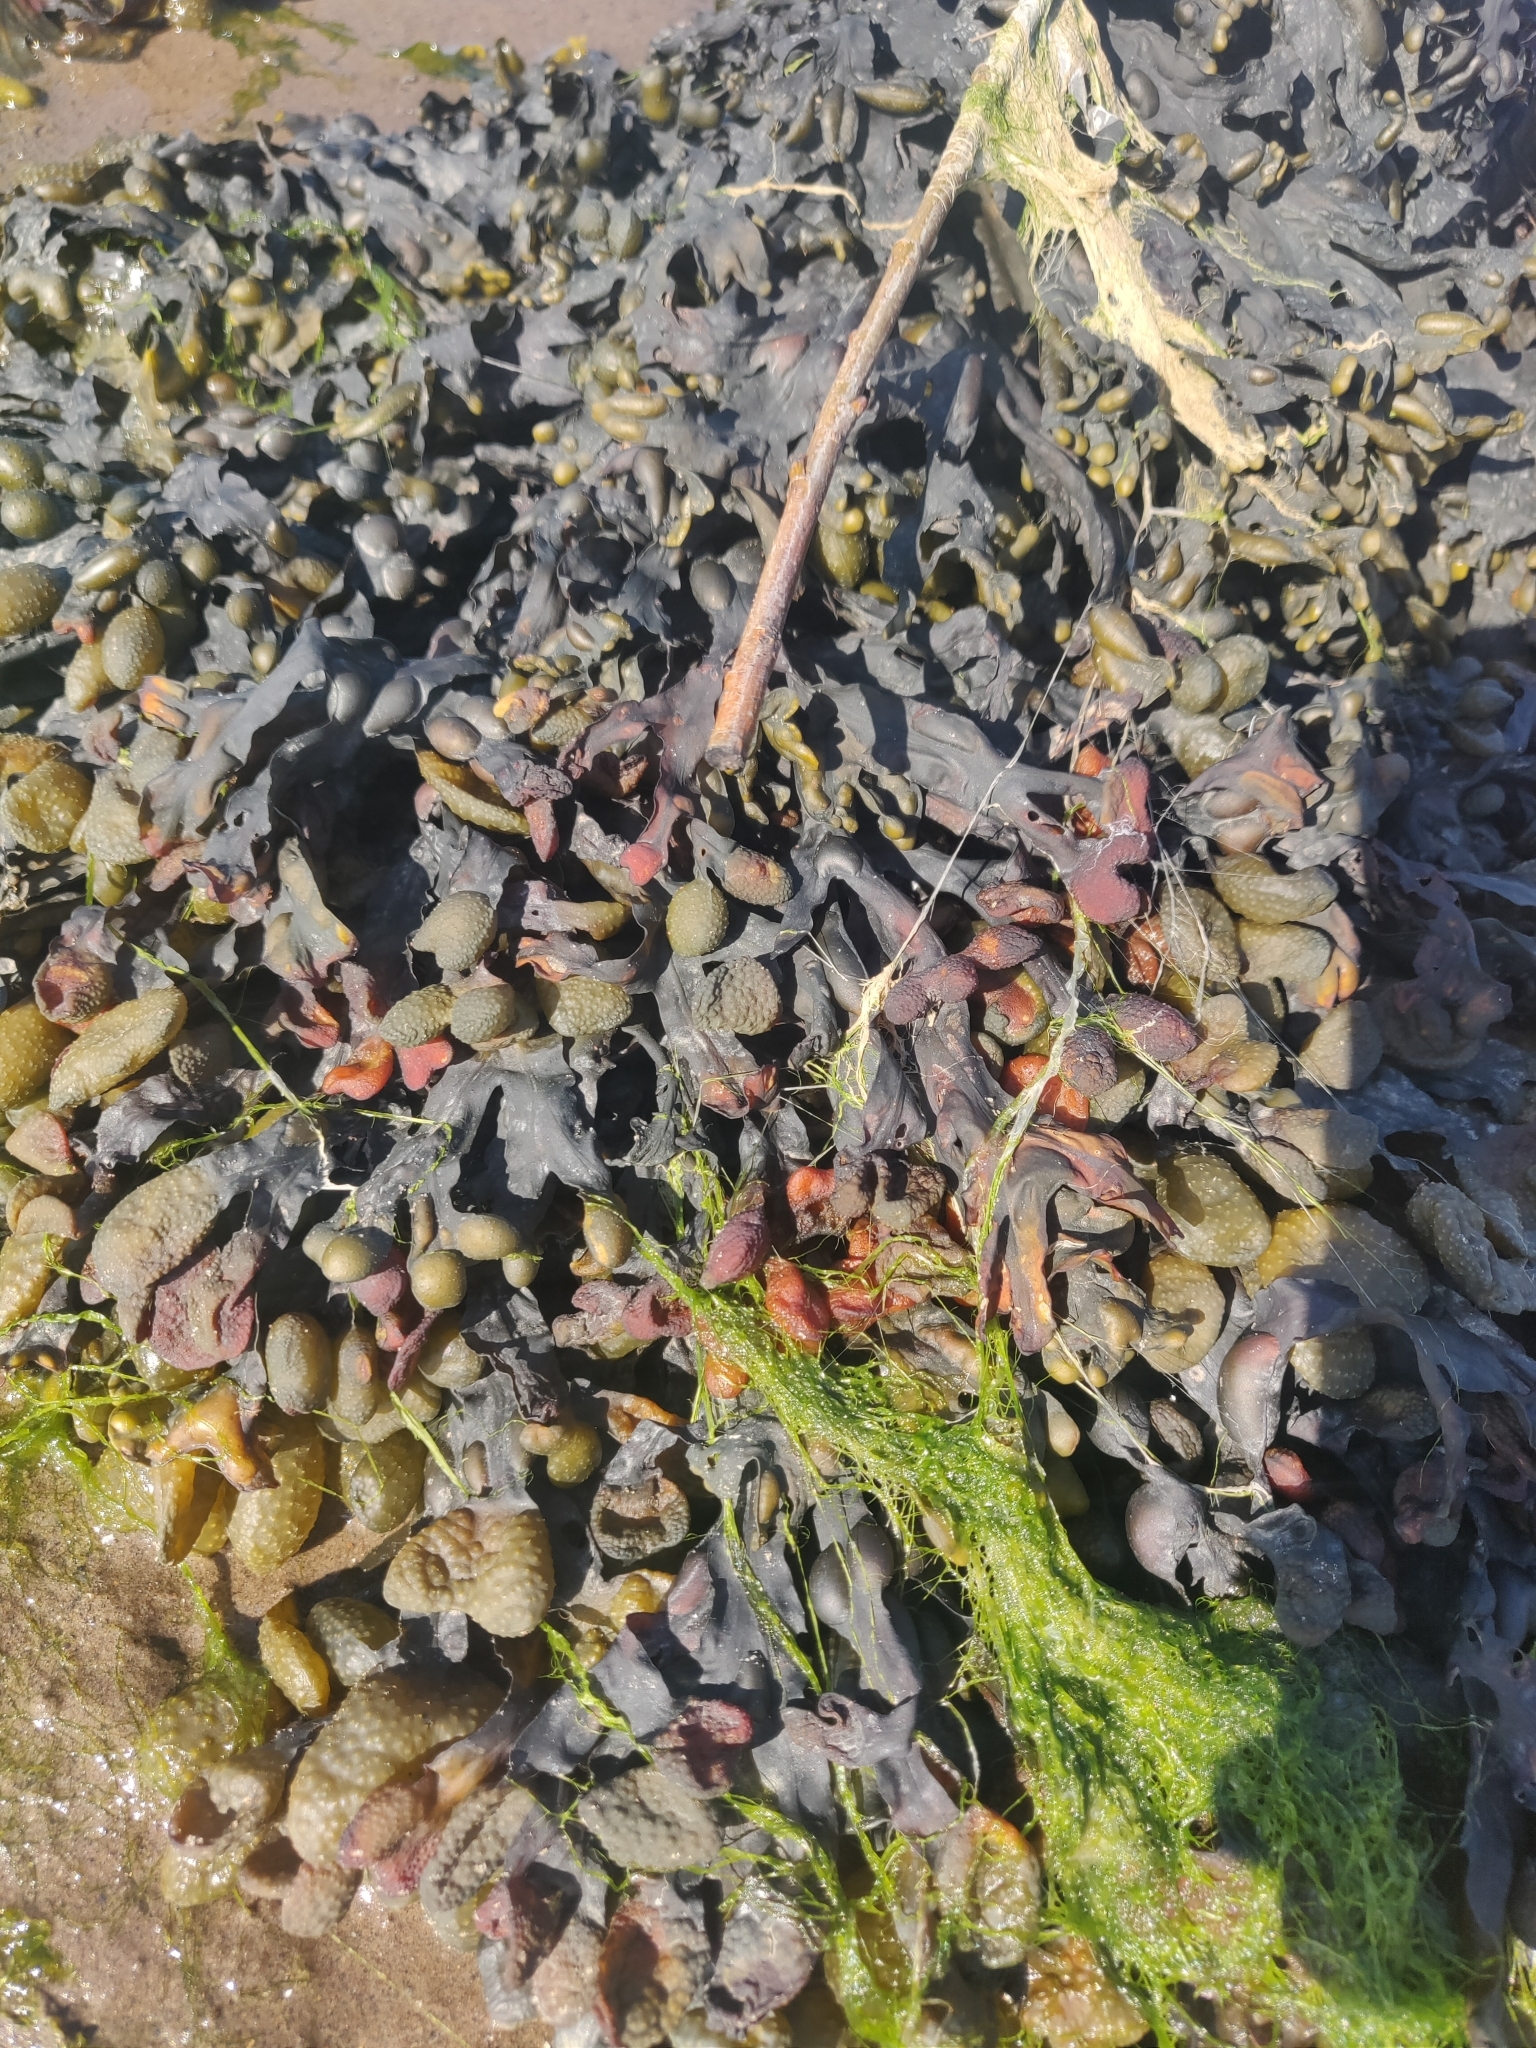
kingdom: Chromista
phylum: Ochrophyta
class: Phaeophyceae
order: Fucales
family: Fucaceae
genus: Fucus
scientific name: Fucus vesiculosus
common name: Bladder wrack
